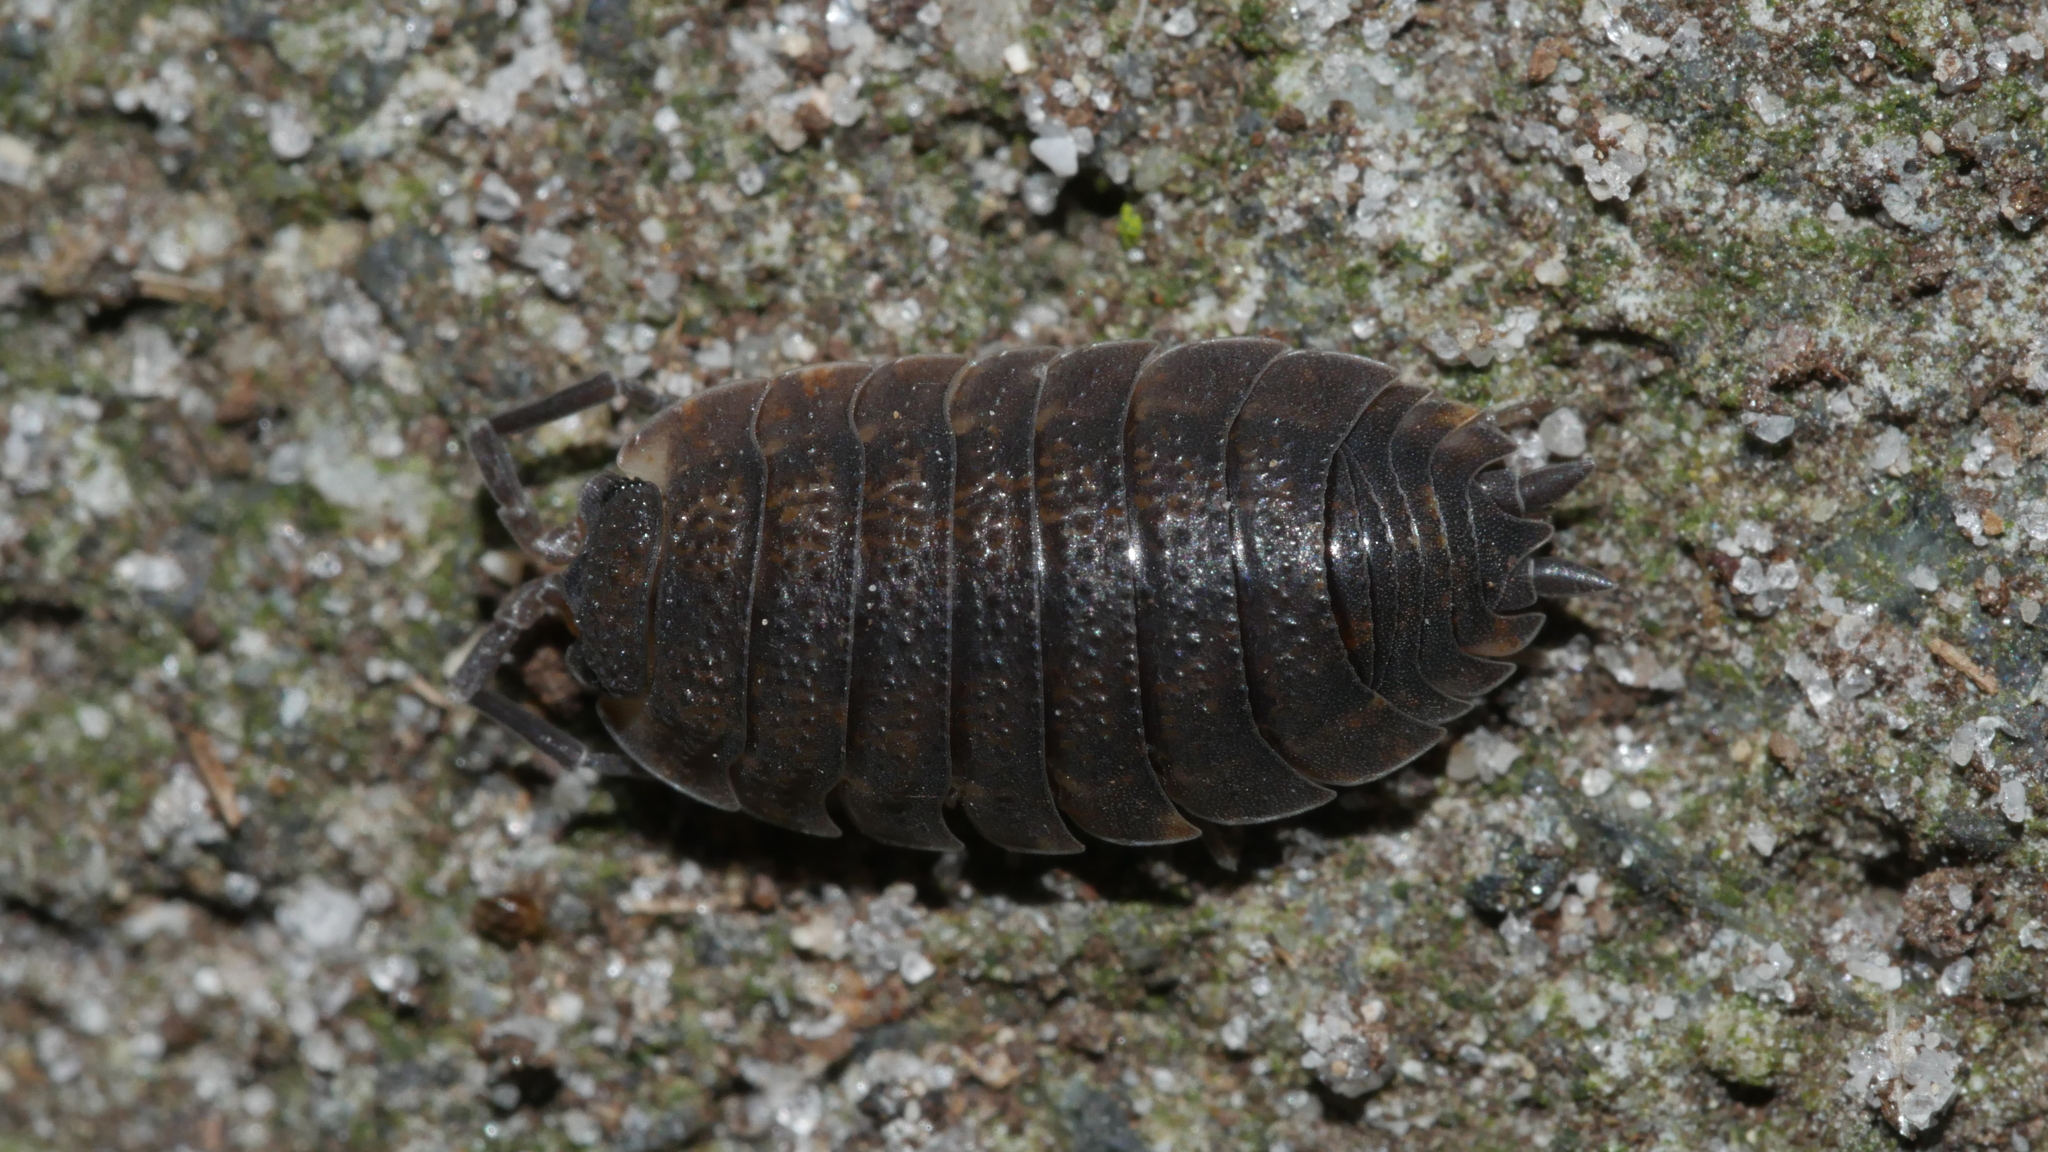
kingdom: Animalia
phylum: Arthropoda
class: Malacostraca
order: Isopoda
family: Porcellionidae
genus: Porcellio
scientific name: Porcellio scaber
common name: Common rough woodlouse
